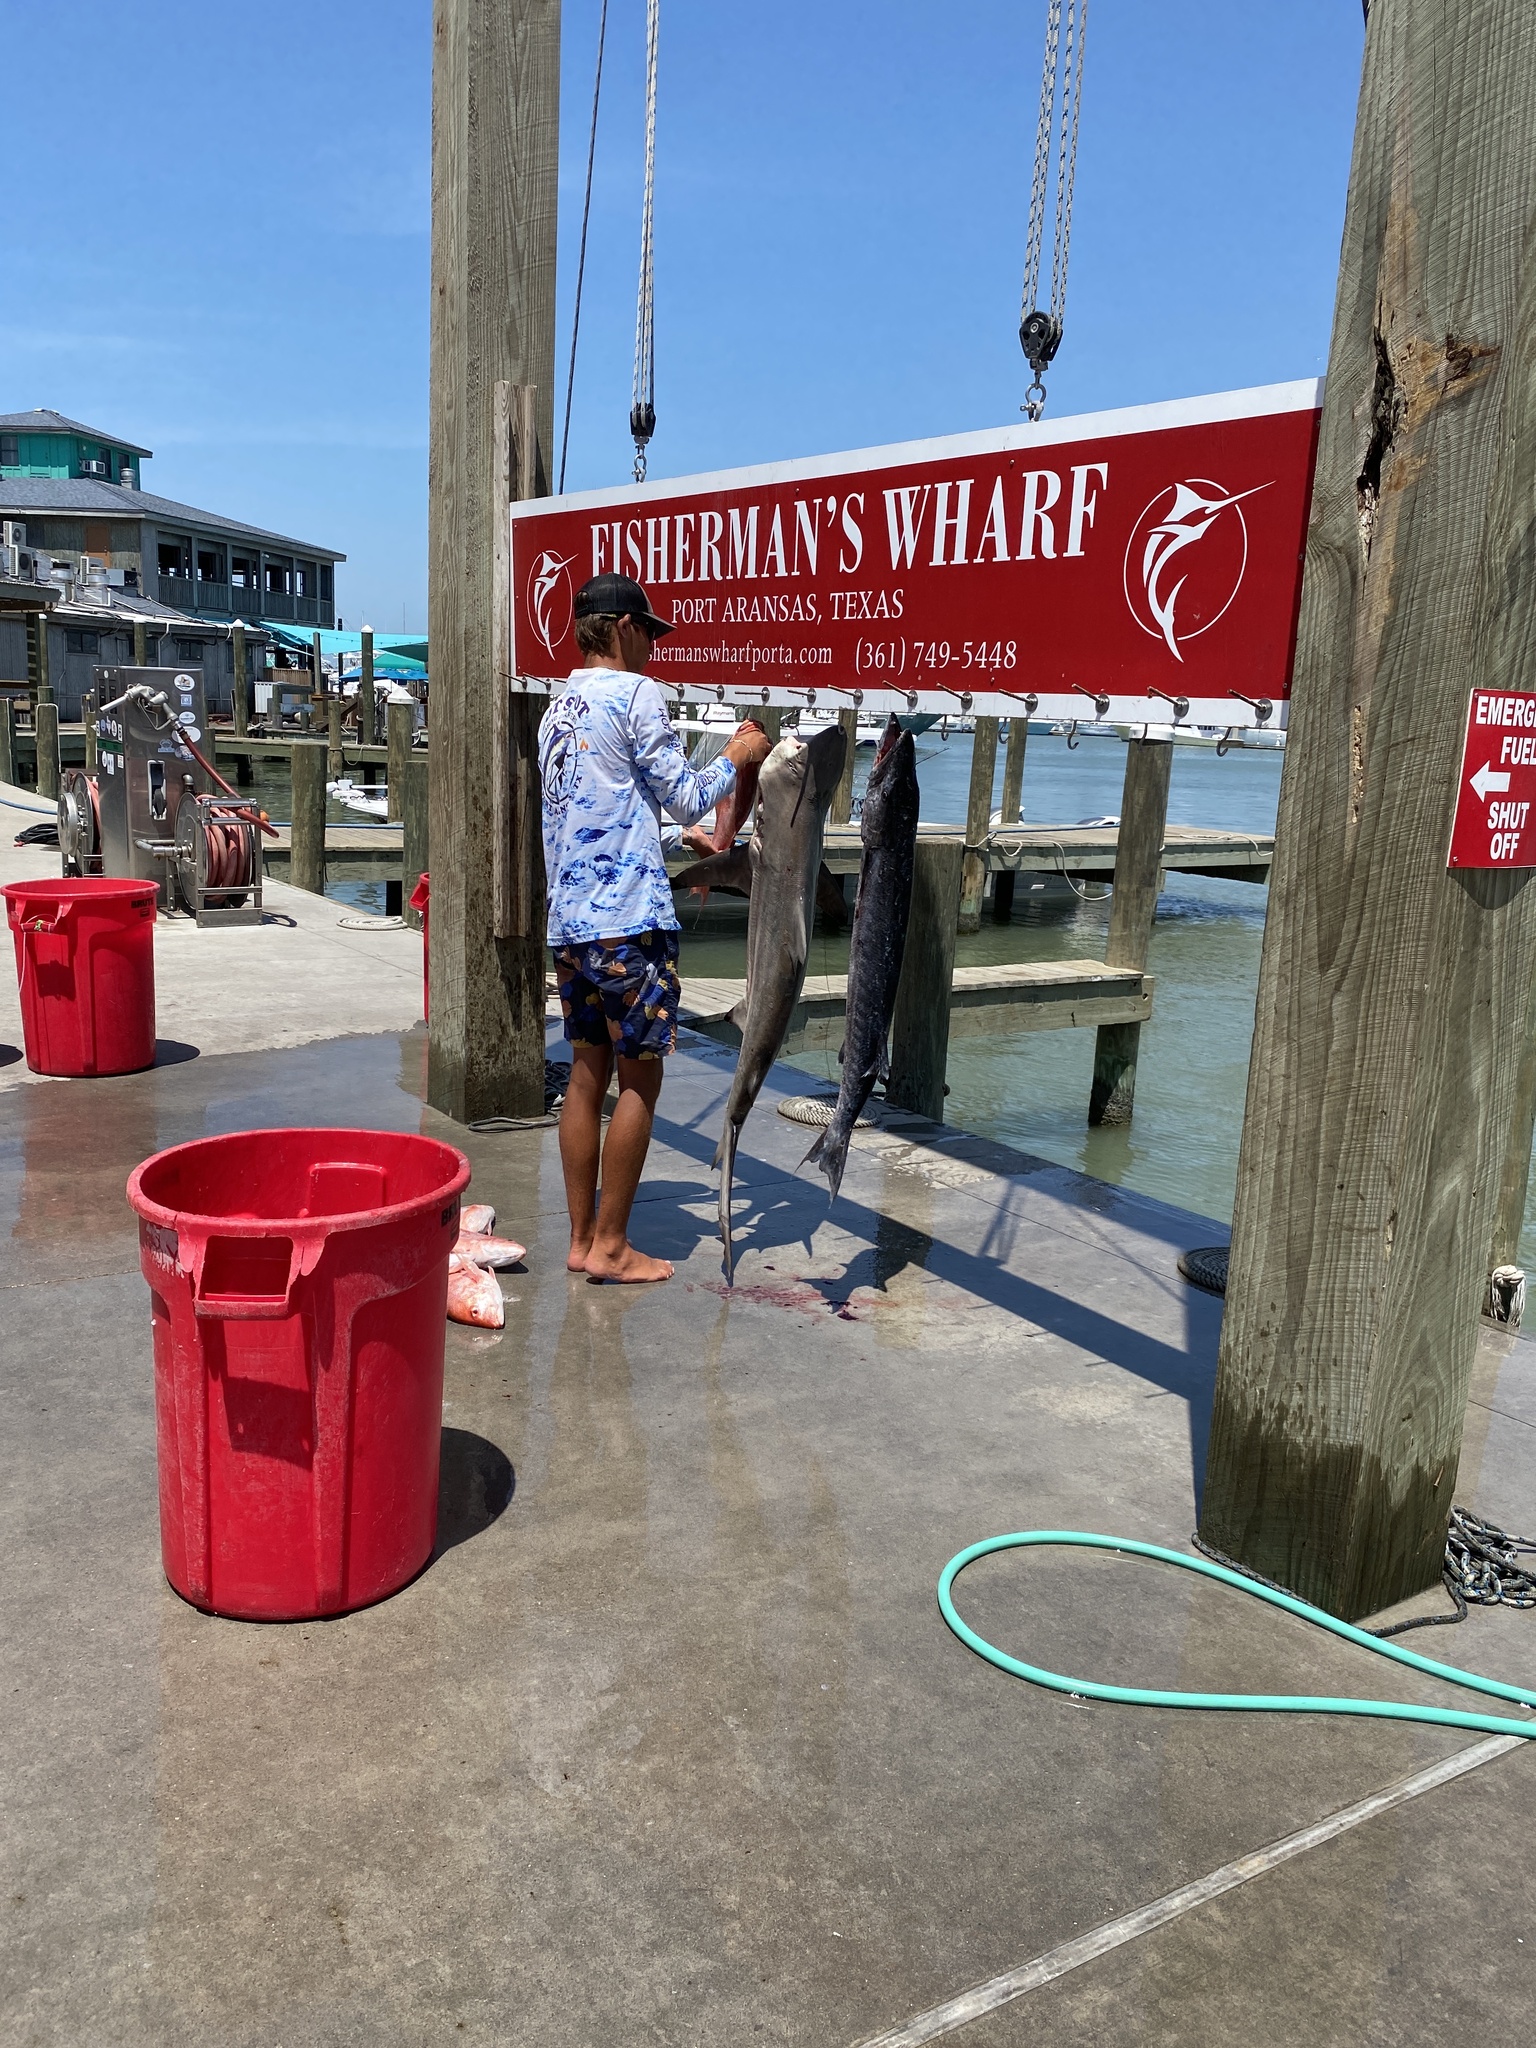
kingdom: Animalia
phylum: Chordata
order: Perciformes
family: Sphyraenidae
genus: Sphyraena
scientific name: Sphyraena barracuda
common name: Great barracuda
